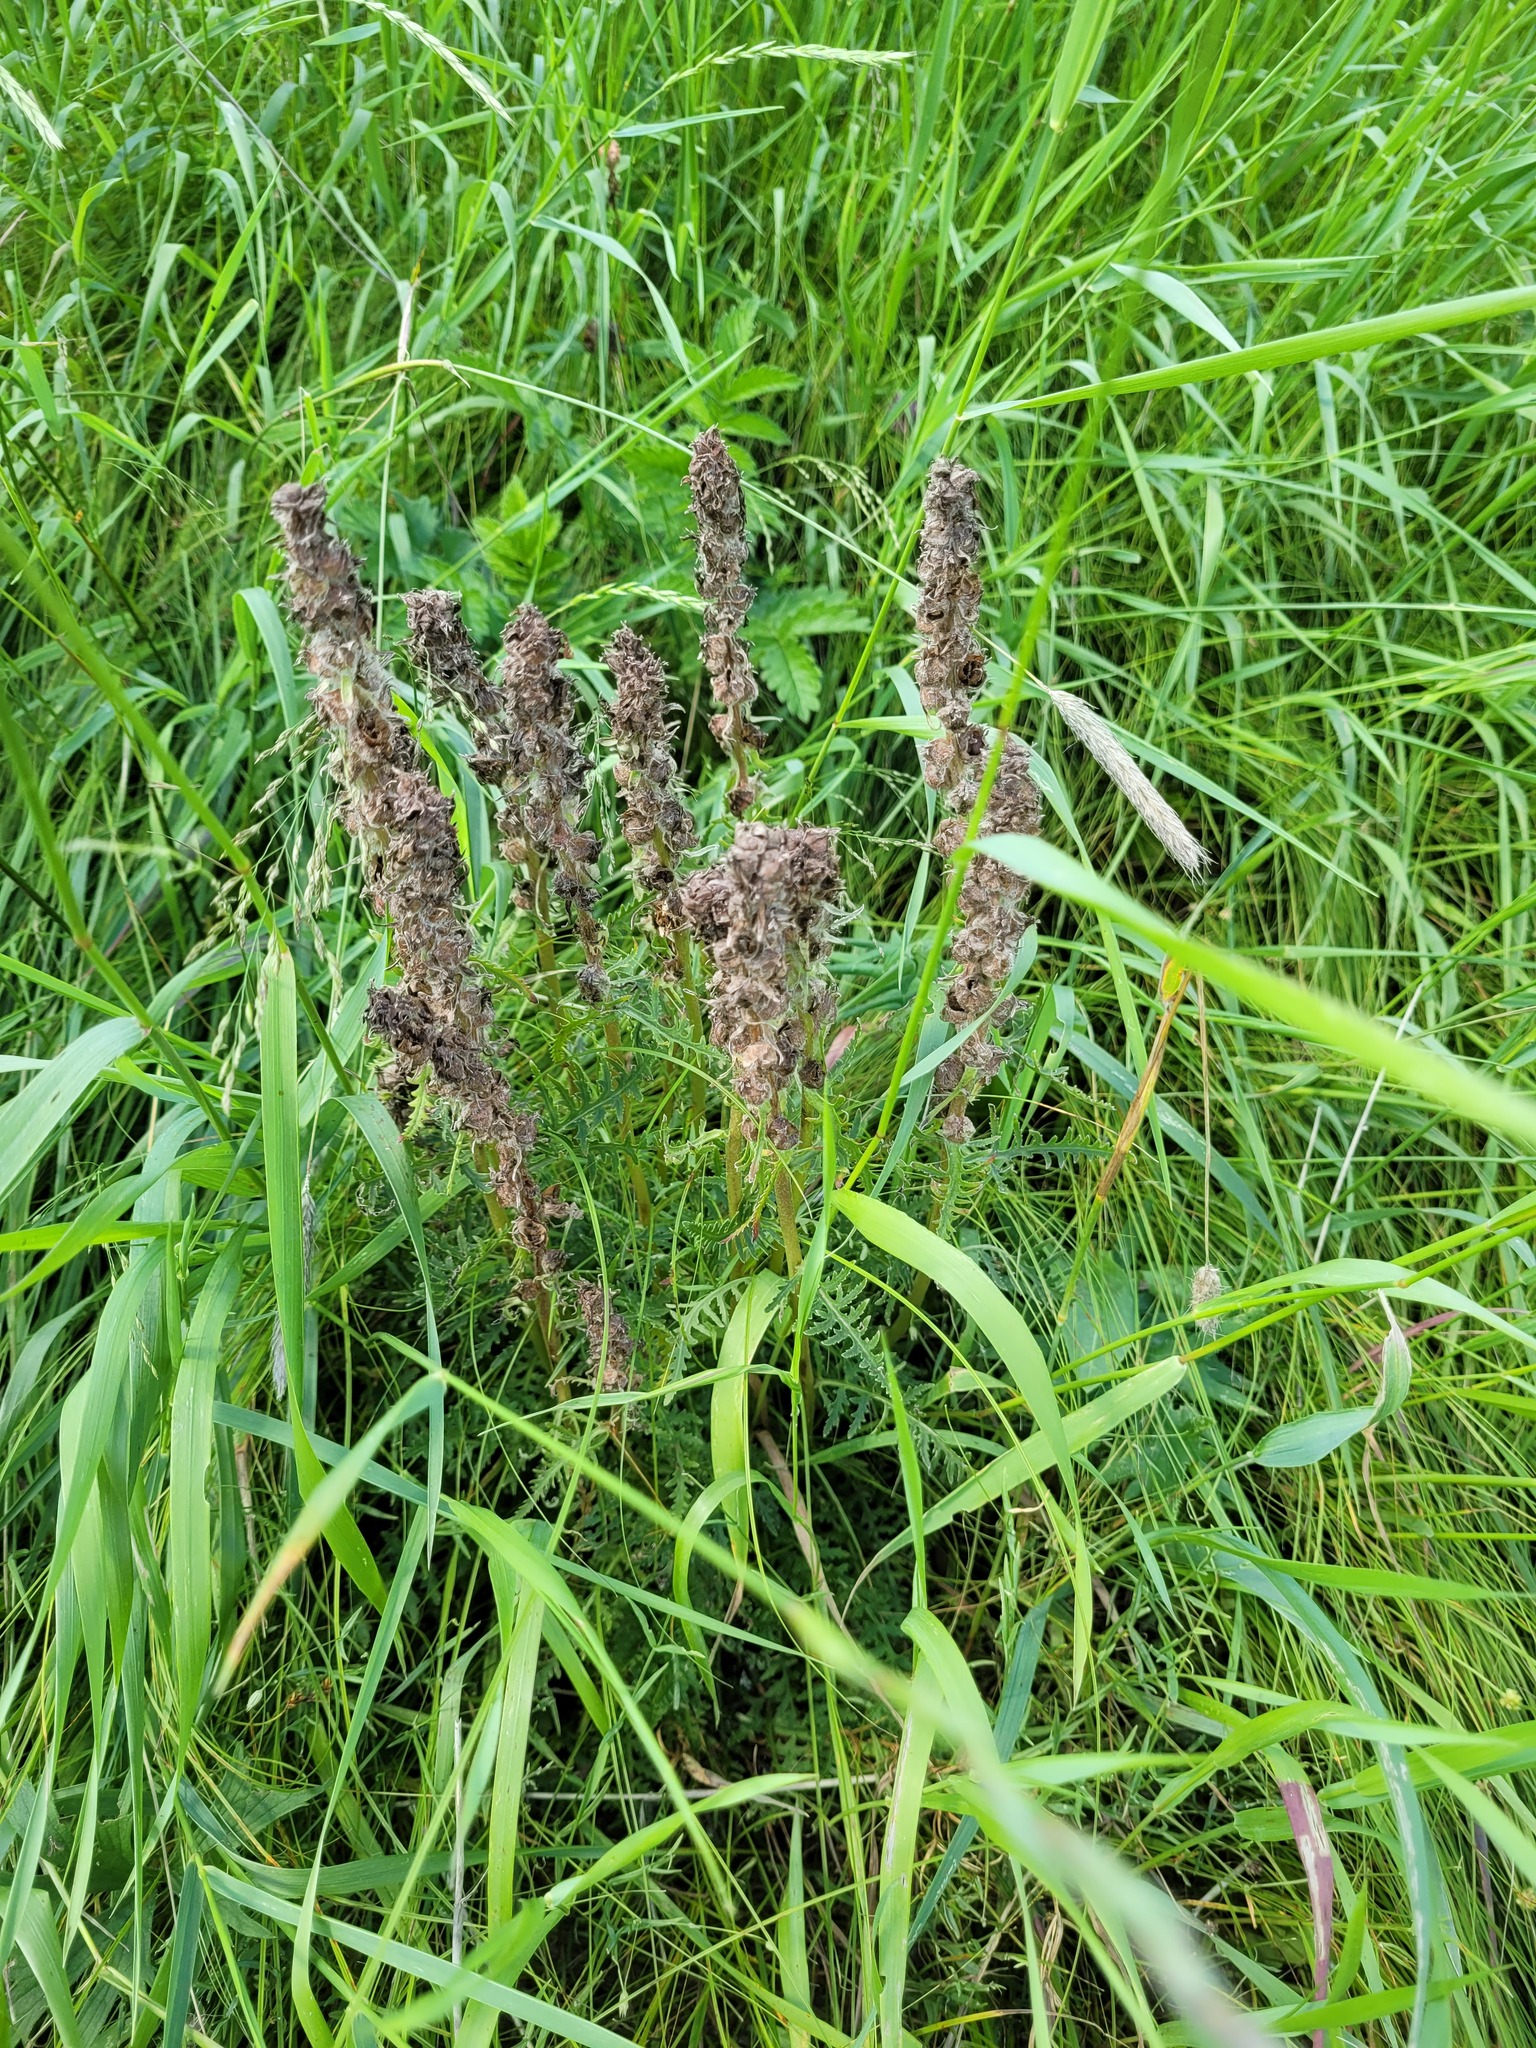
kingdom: Plantae
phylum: Tracheophyta
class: Magnoliopsida
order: Lamiales
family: Orobanchaceae
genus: Pedicularis
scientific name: Pedicularis dasystachys
